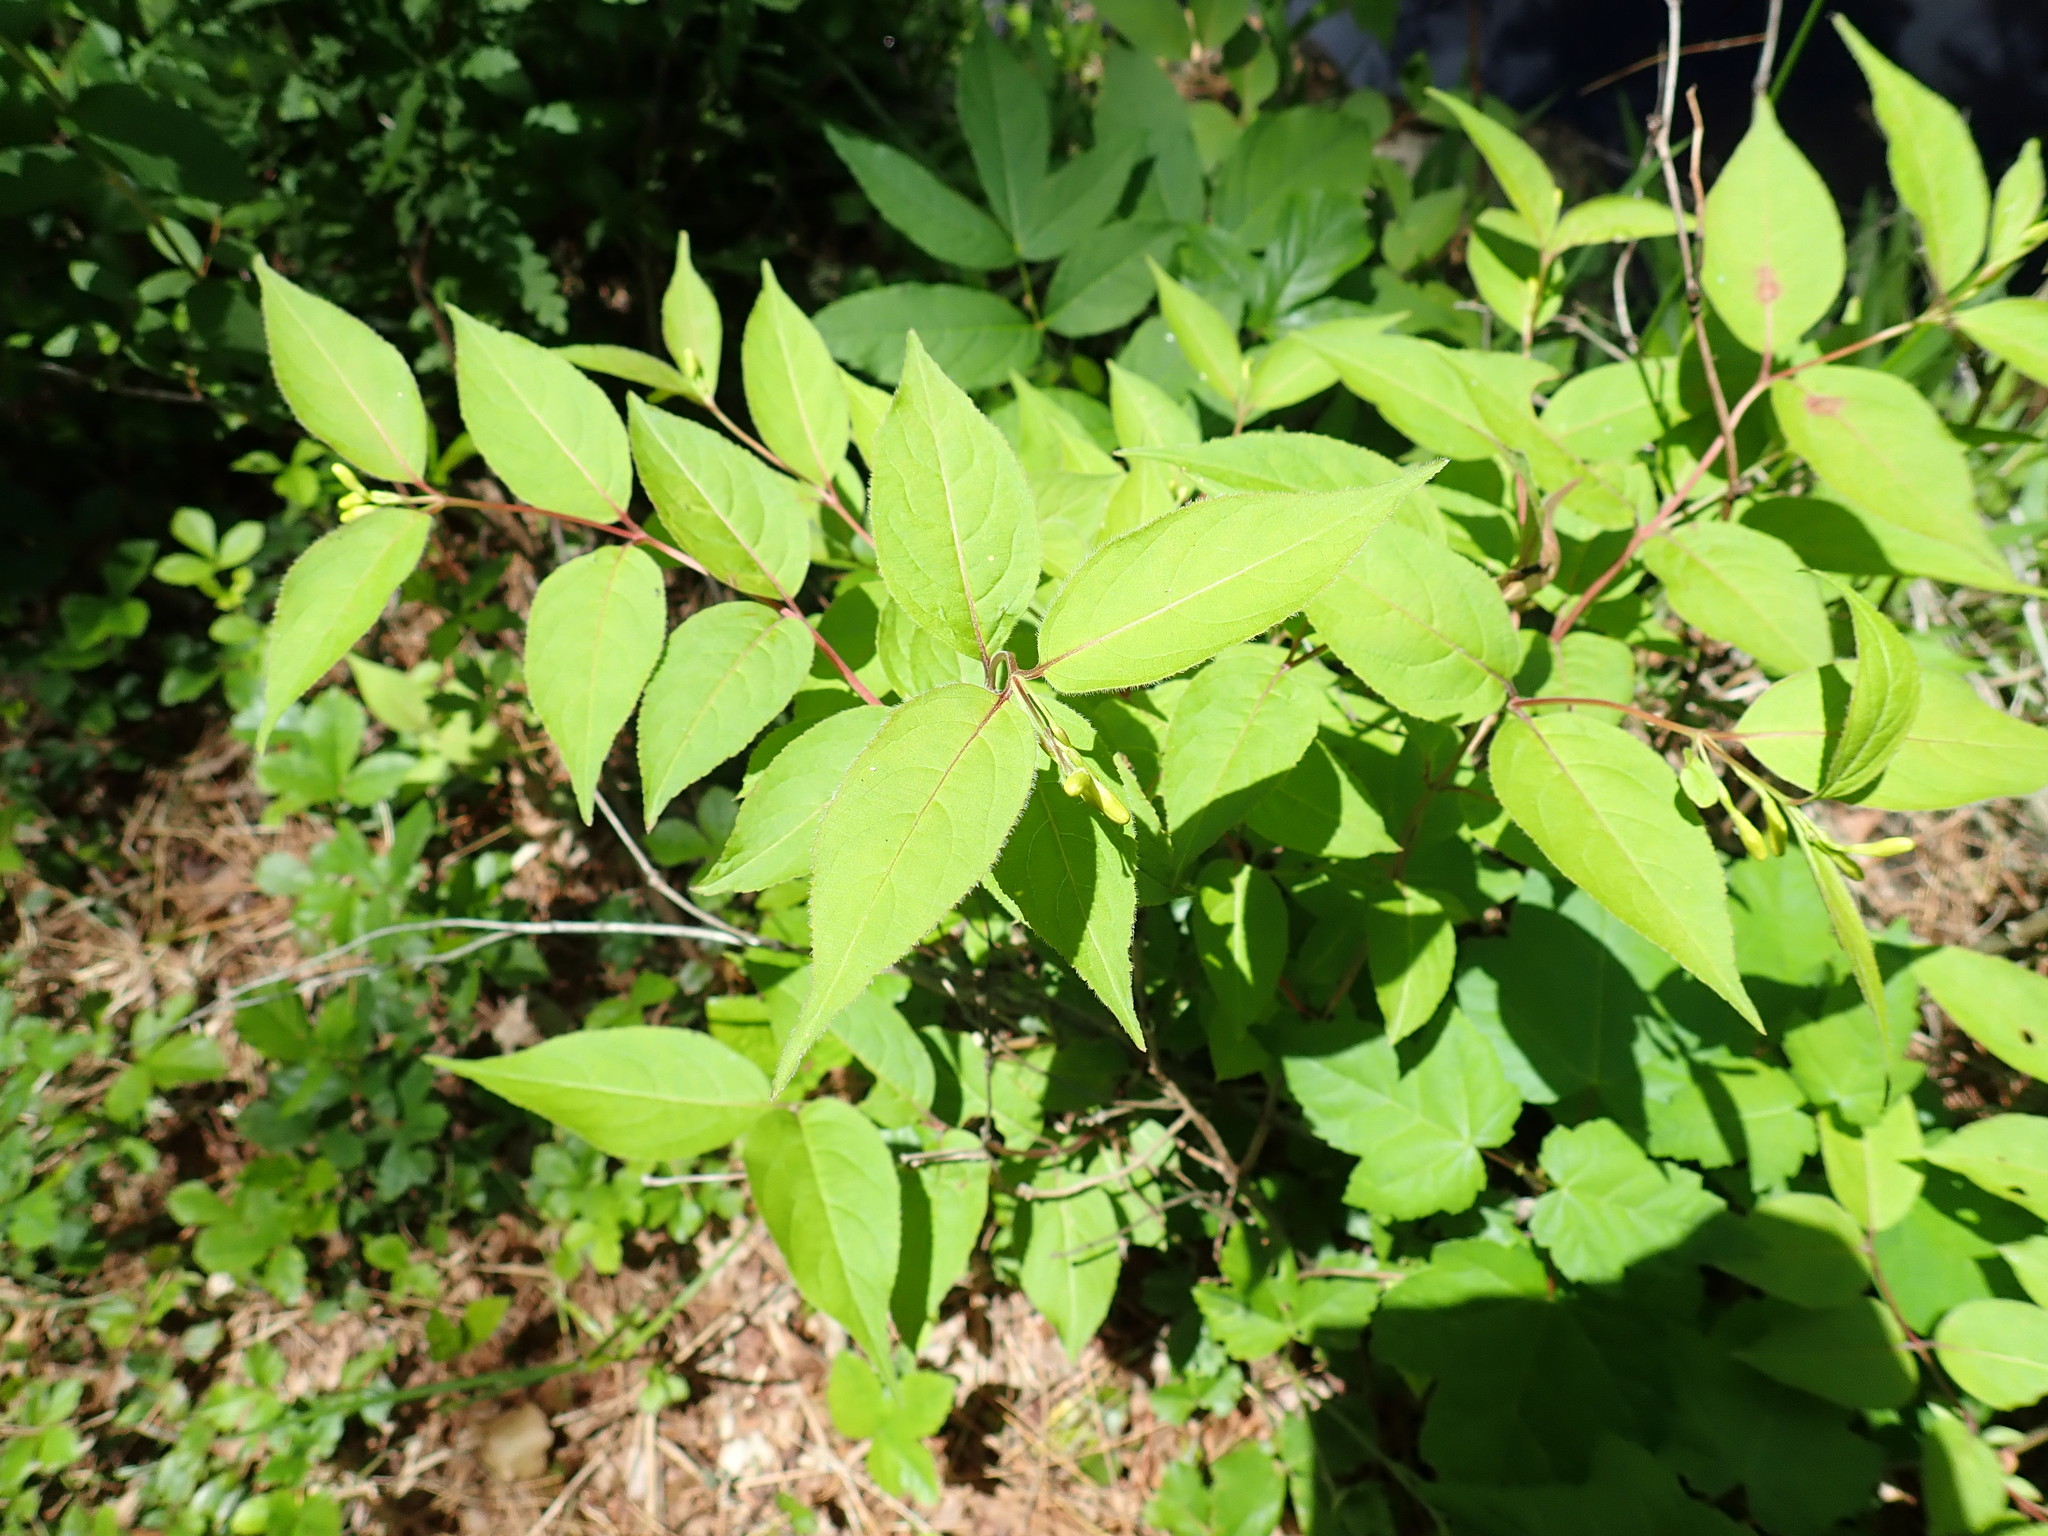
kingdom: Plantae
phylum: Tracheophyta
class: Magnoliopsida
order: Dipsacales
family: Caprifoliaceae
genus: Diervilla
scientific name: Diervilla lonicera
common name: Bush-honeysuckle
